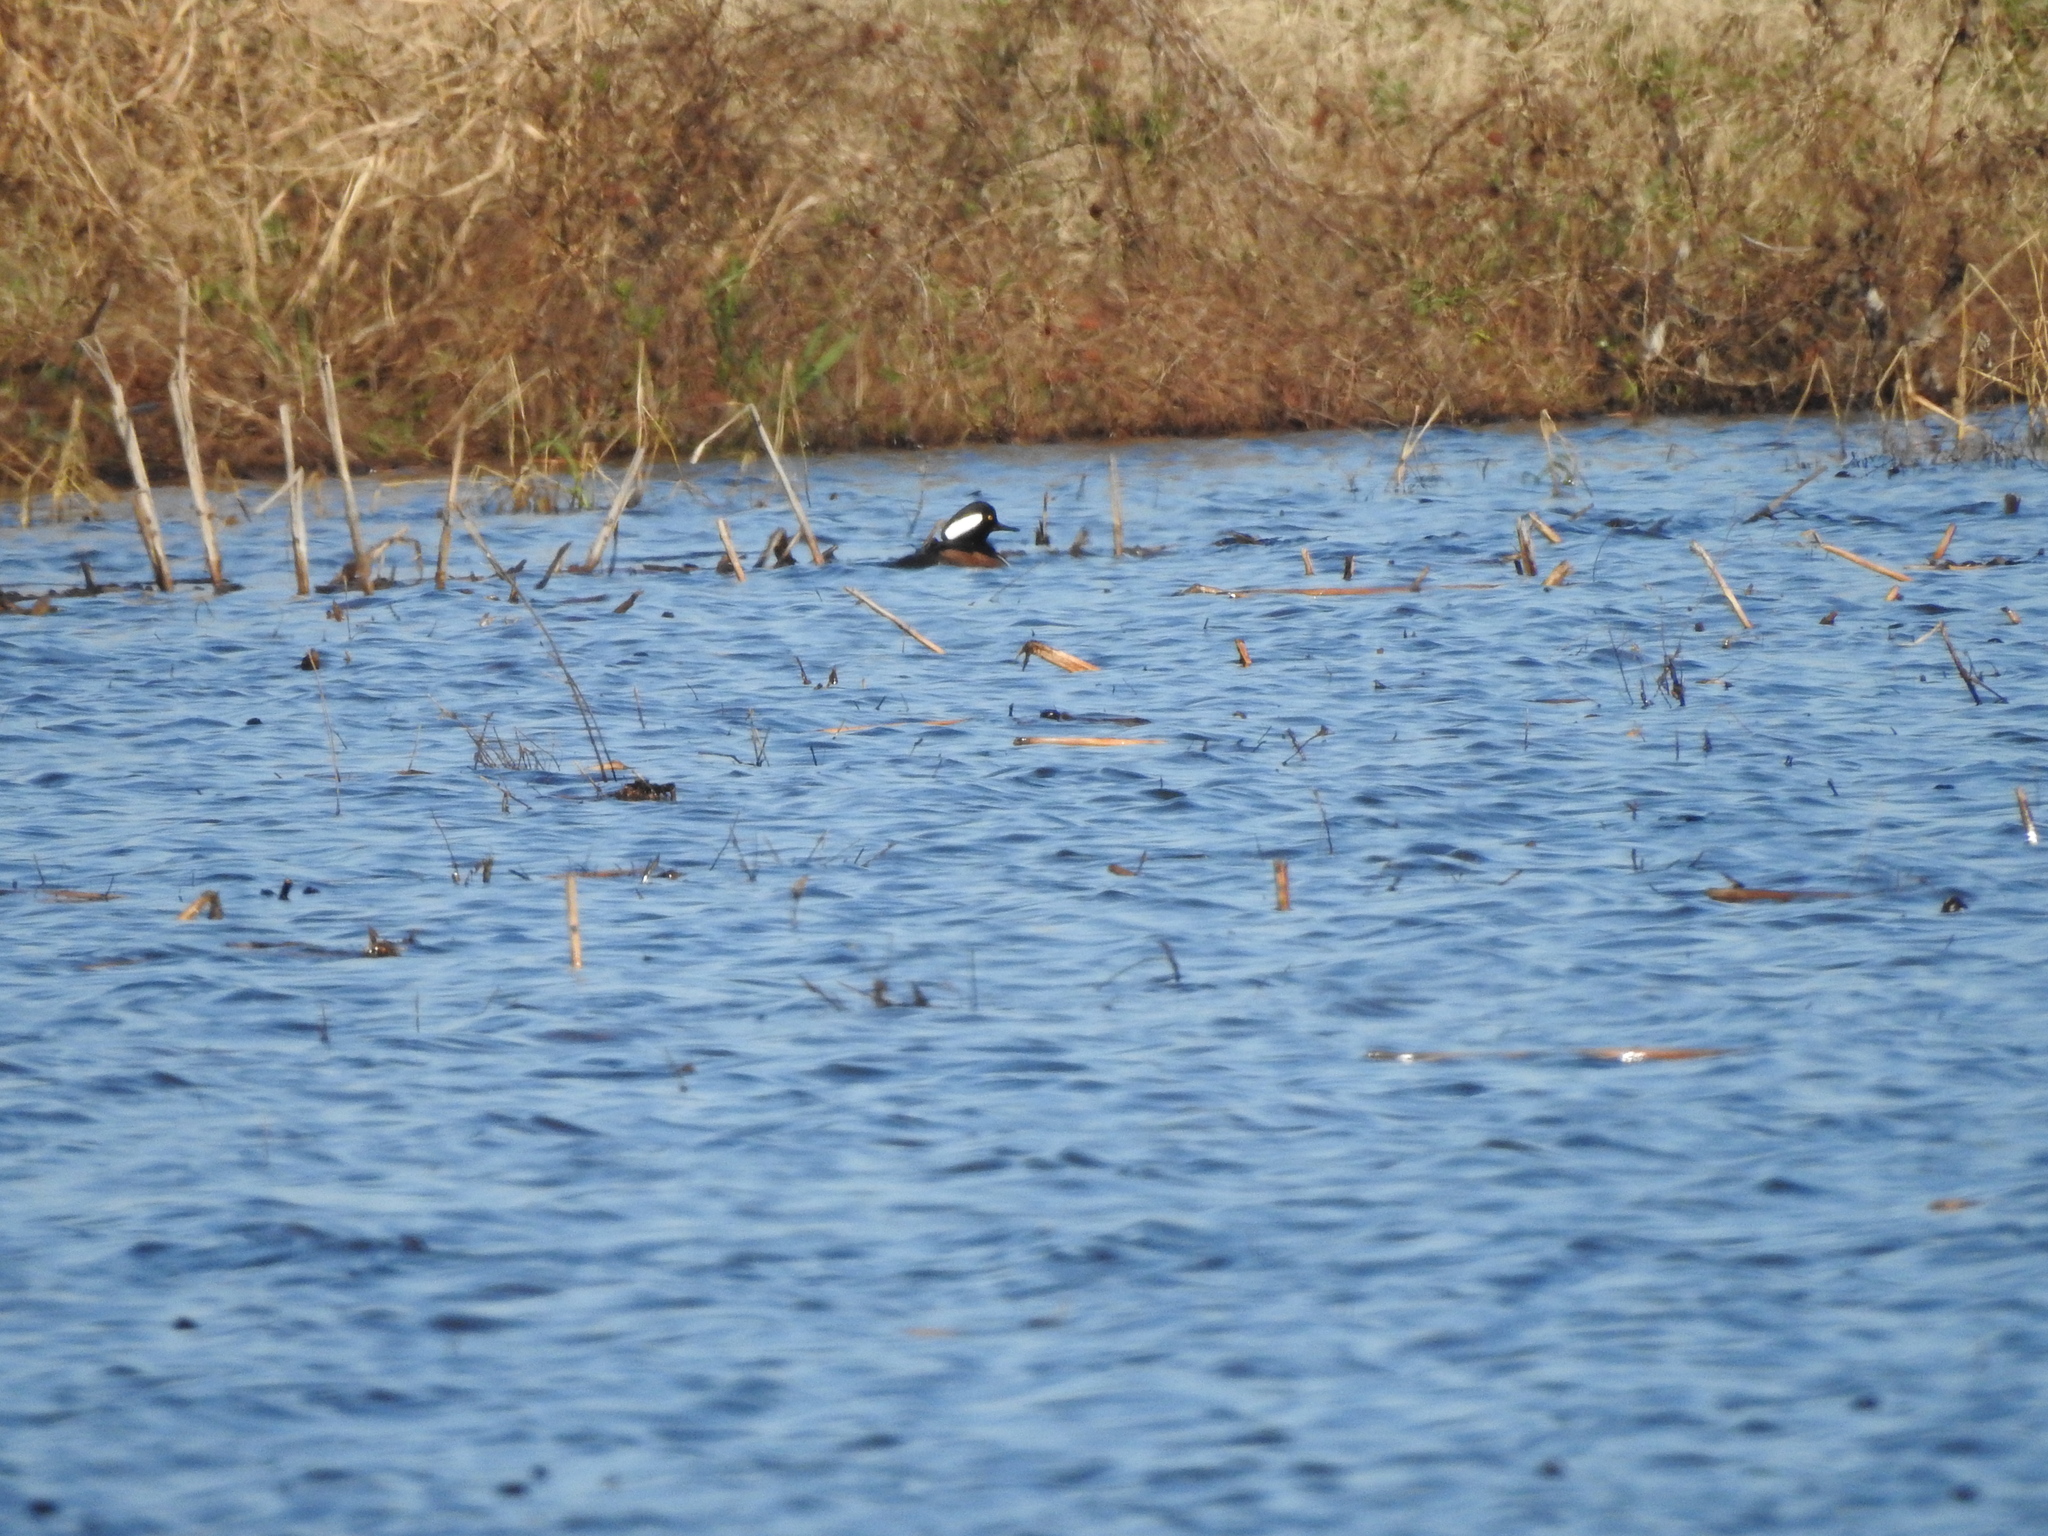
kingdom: Animalia
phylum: Chordata
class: Aves
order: Anseriformes
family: Anatidae
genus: Lophodytes
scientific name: Lophodytes cucullatus
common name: Hooded merganser
